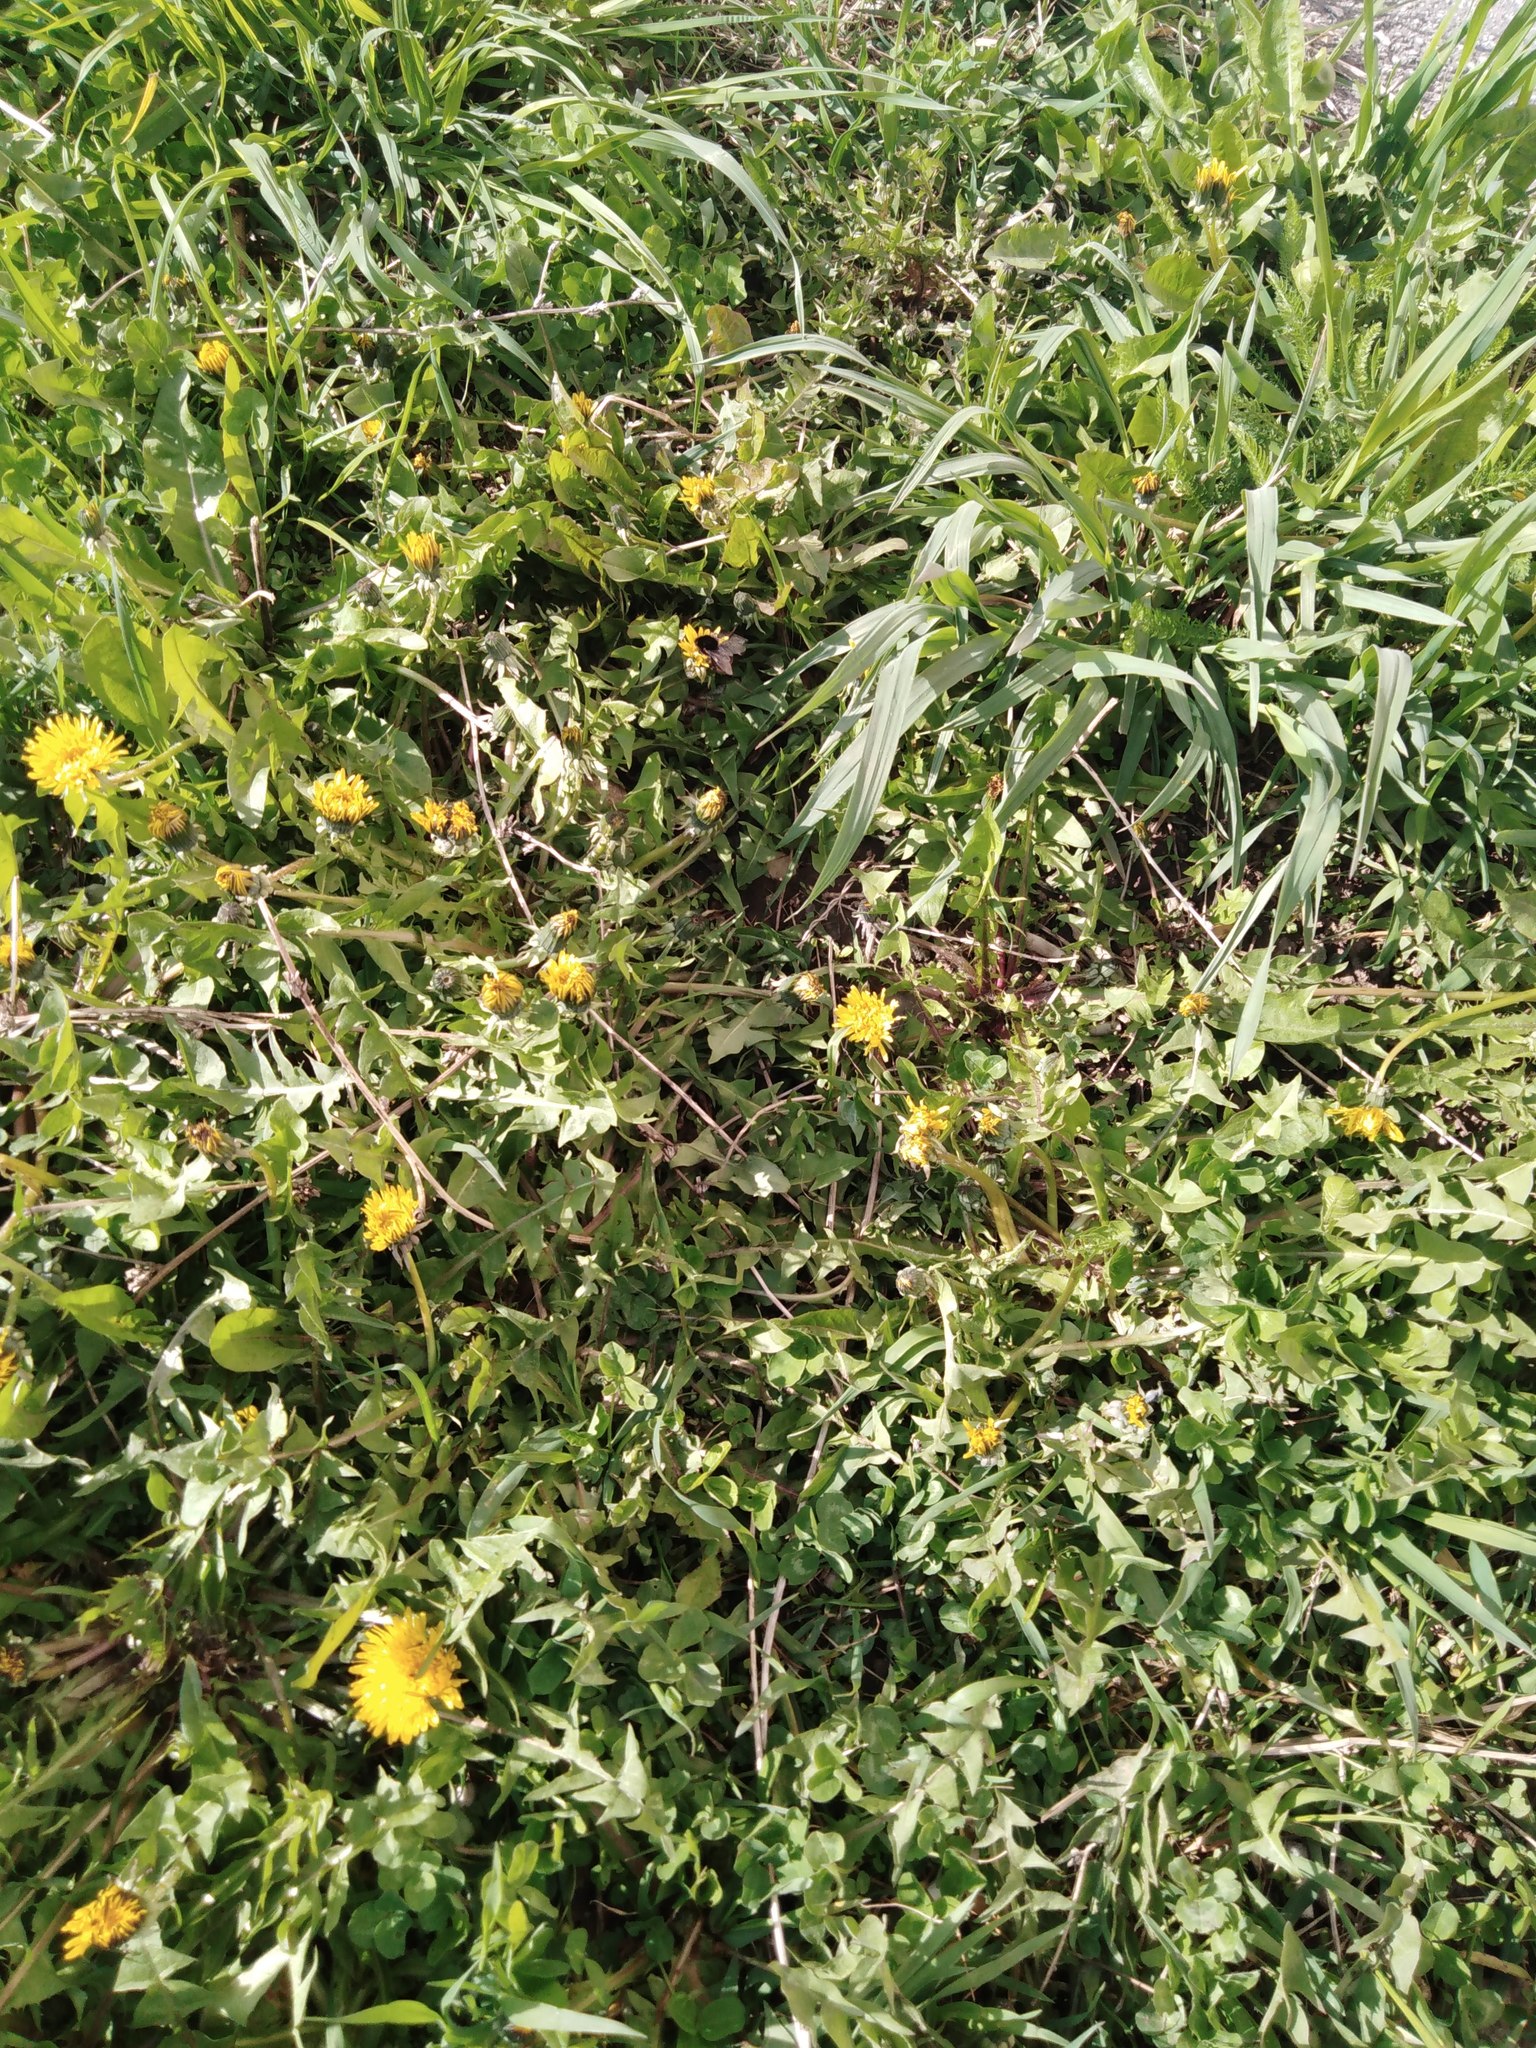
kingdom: Plantae
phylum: Tracheophyta
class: Magnoliopsida
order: Asterales
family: Asteraceae
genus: Taraxacum
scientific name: Taraxacum officinale
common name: Common dandelion
